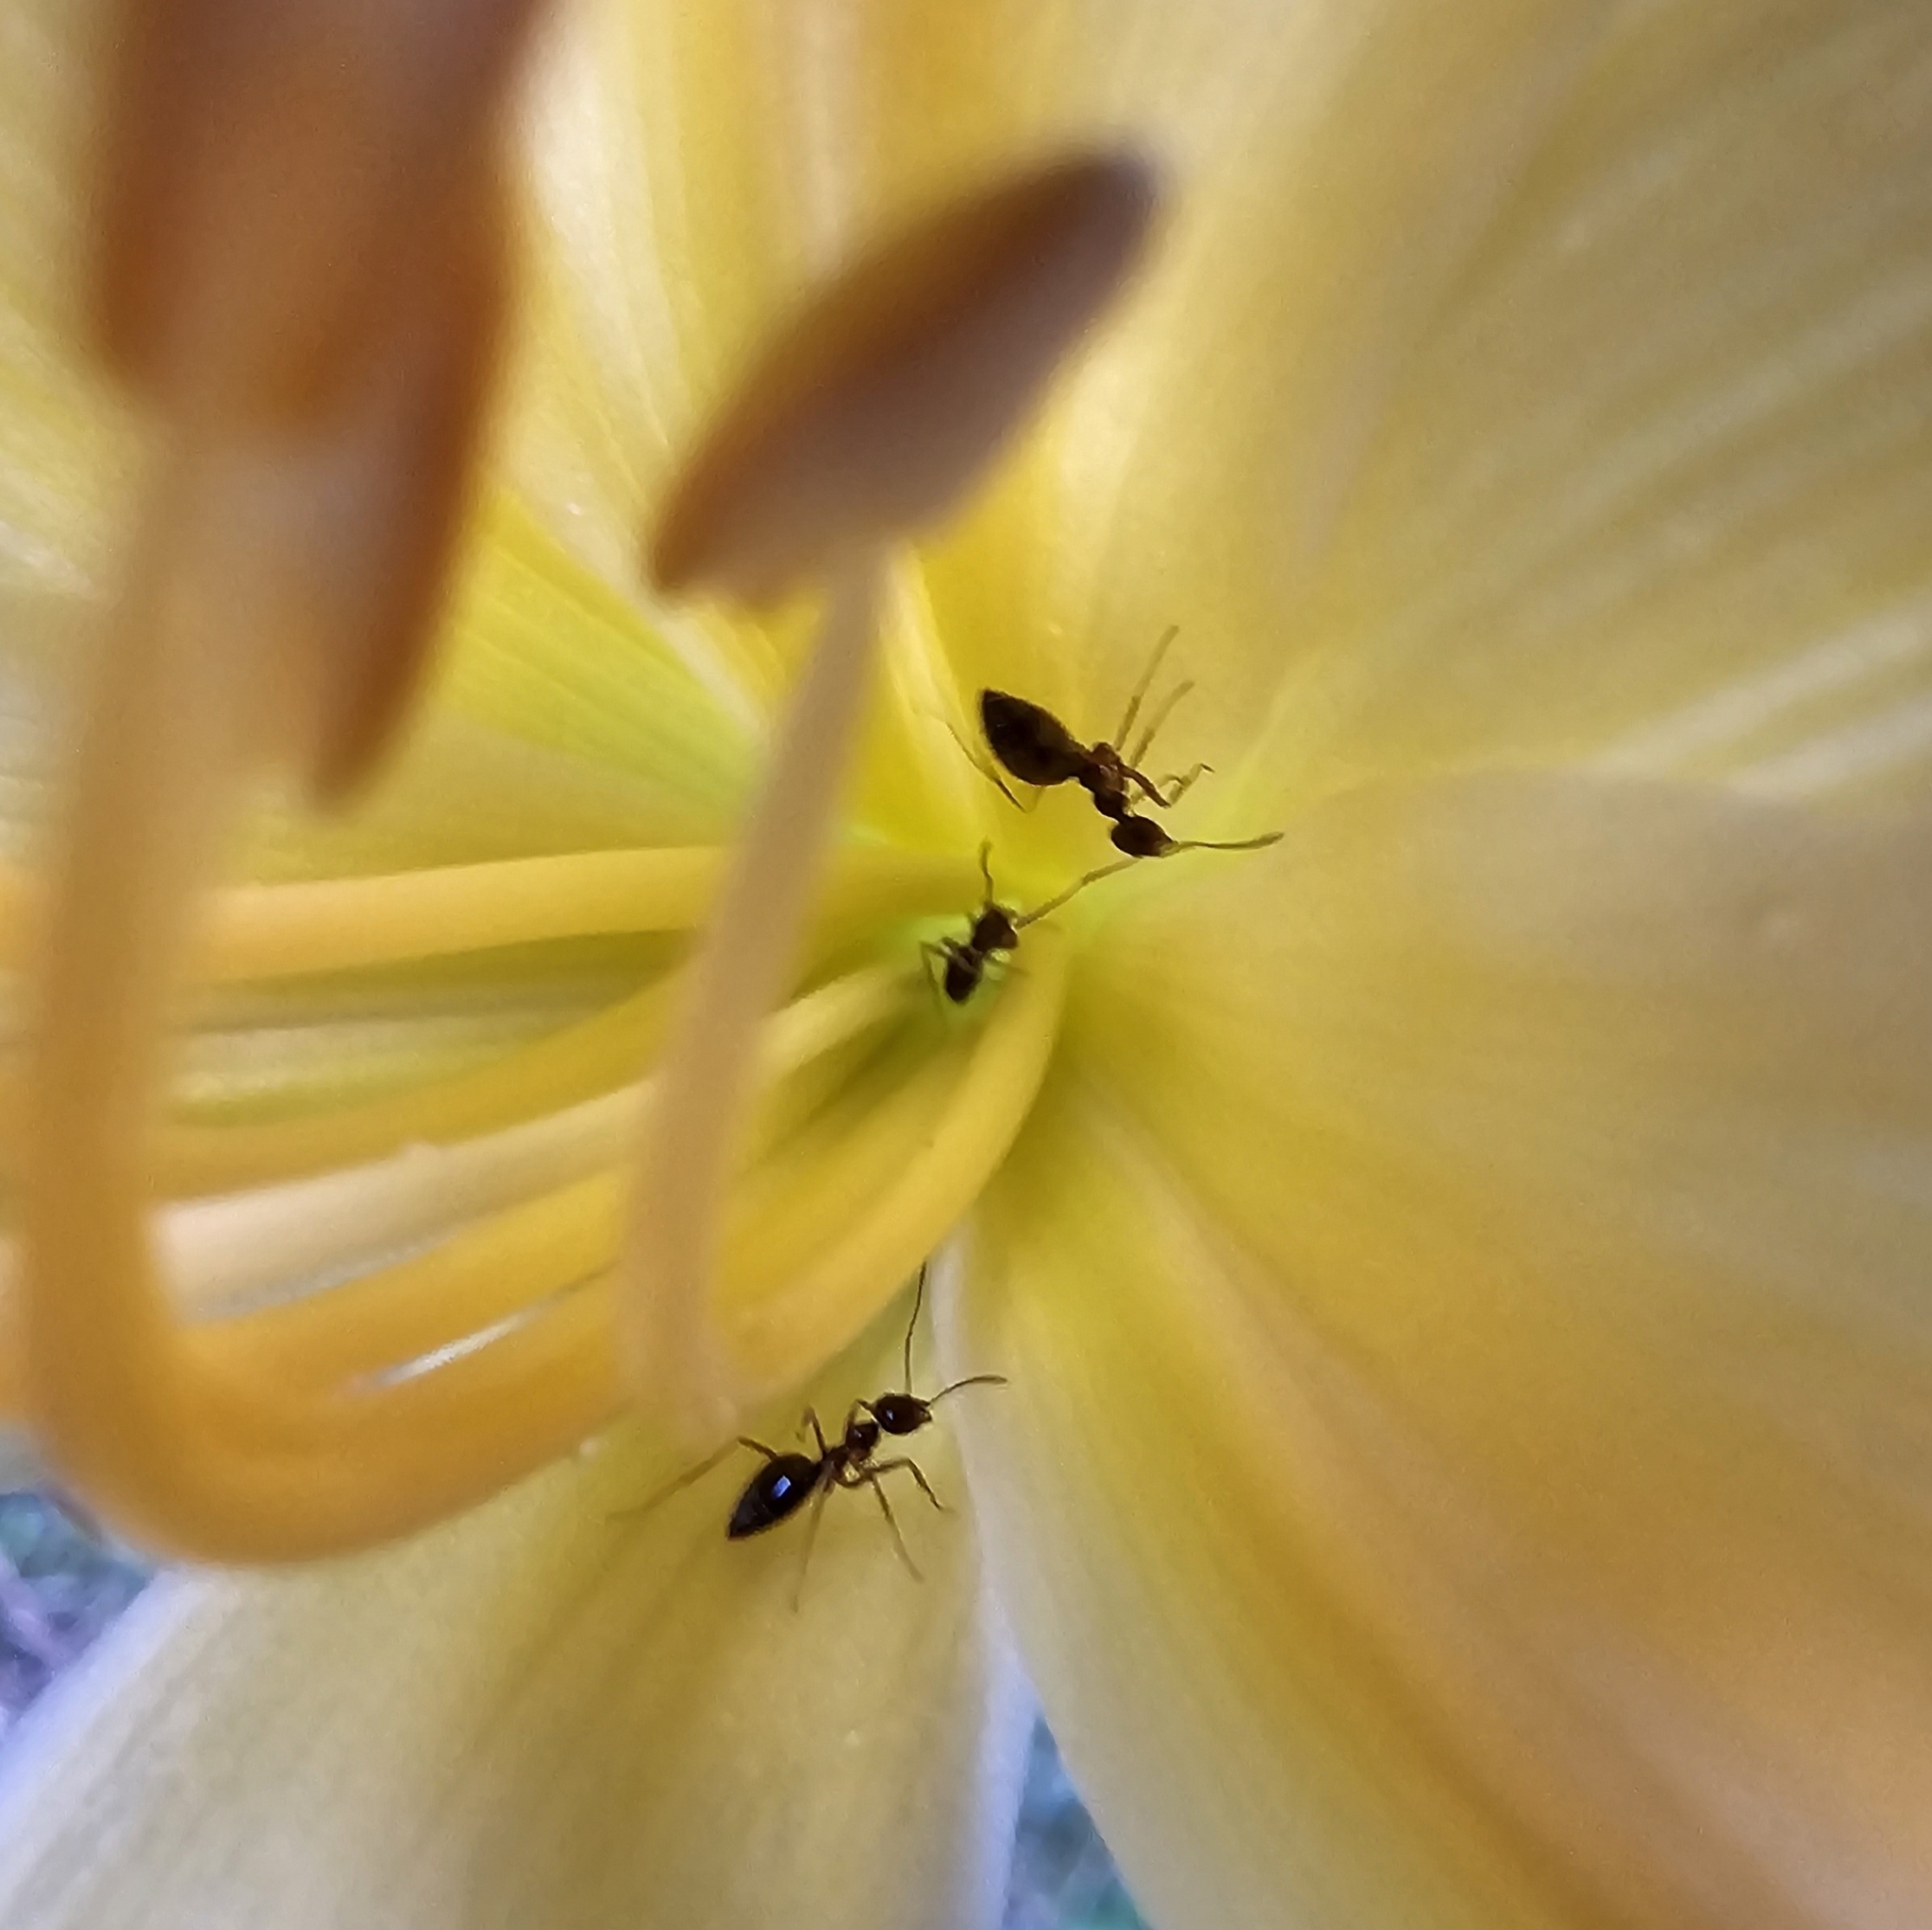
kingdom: Animalia
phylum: Arthropoda
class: Insecta
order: Hymenoptera
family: Formicidae
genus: Prenolepis
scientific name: Prenolepis imparis
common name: Small honey ant
